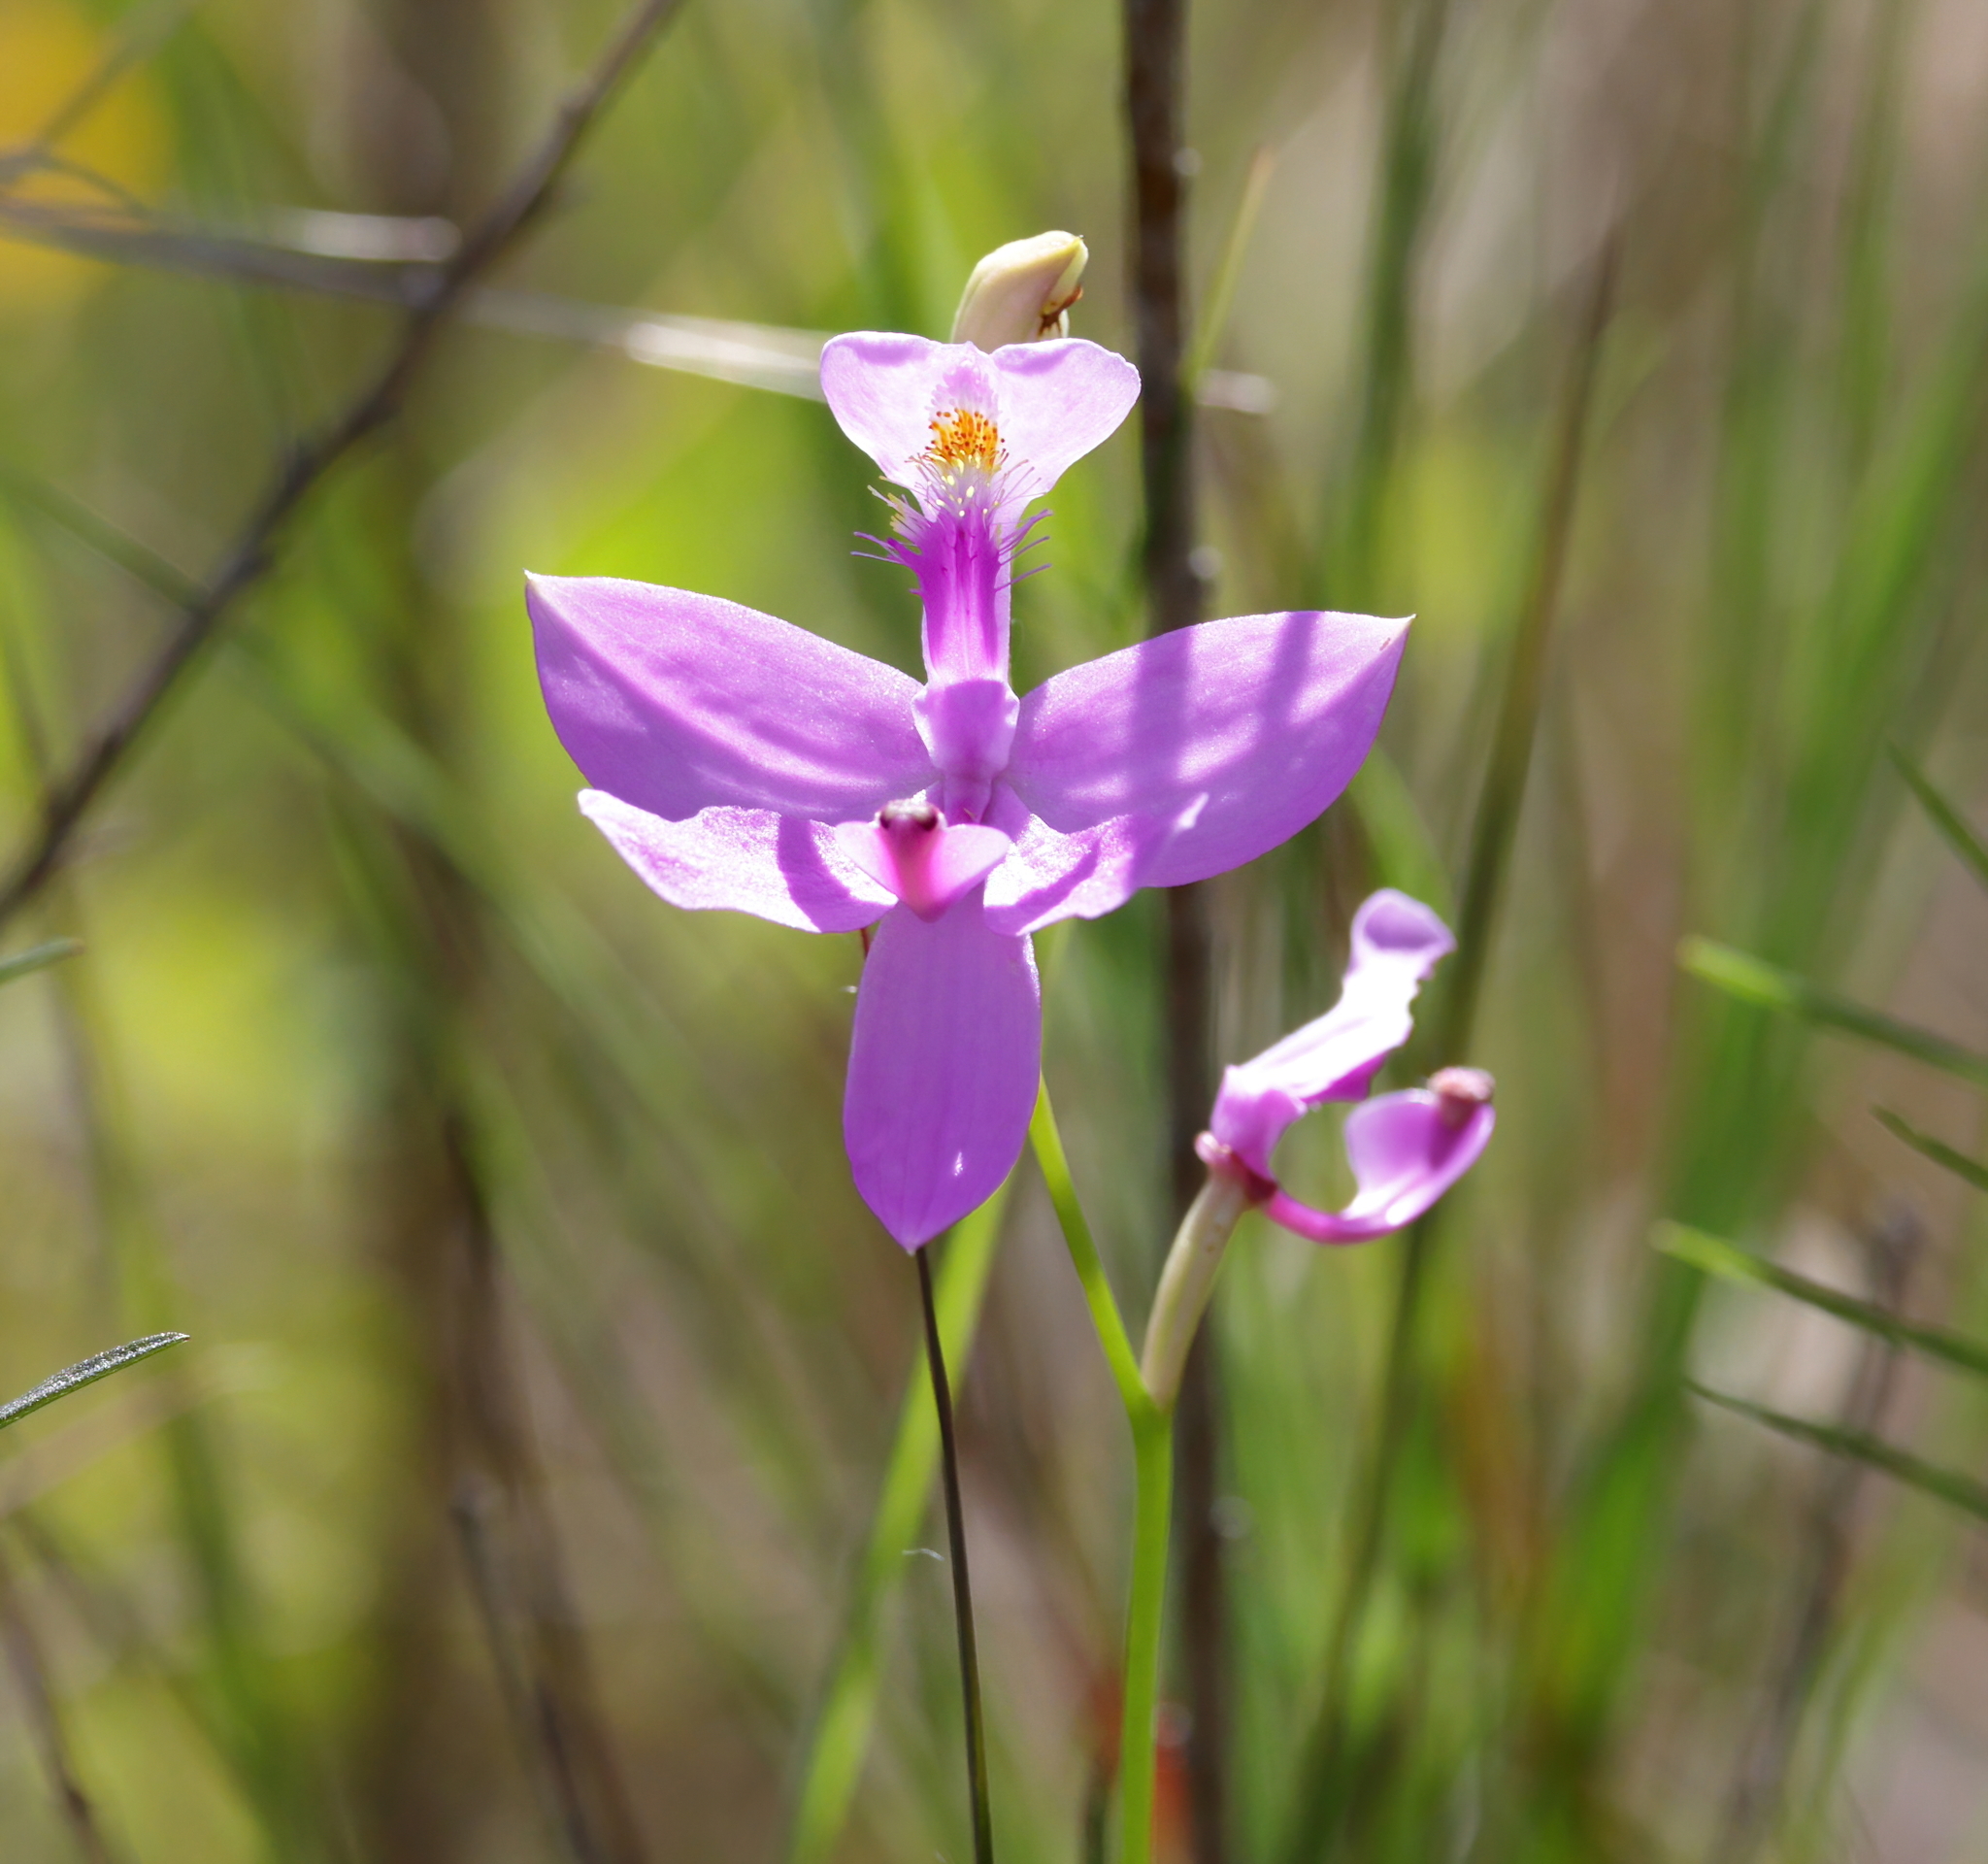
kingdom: Plantae
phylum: Tracheophyta
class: Liliopsida
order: Asparagales
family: Orchidaceae
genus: Calopogon
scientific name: Calopogon tuberosus
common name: Grass-pink
